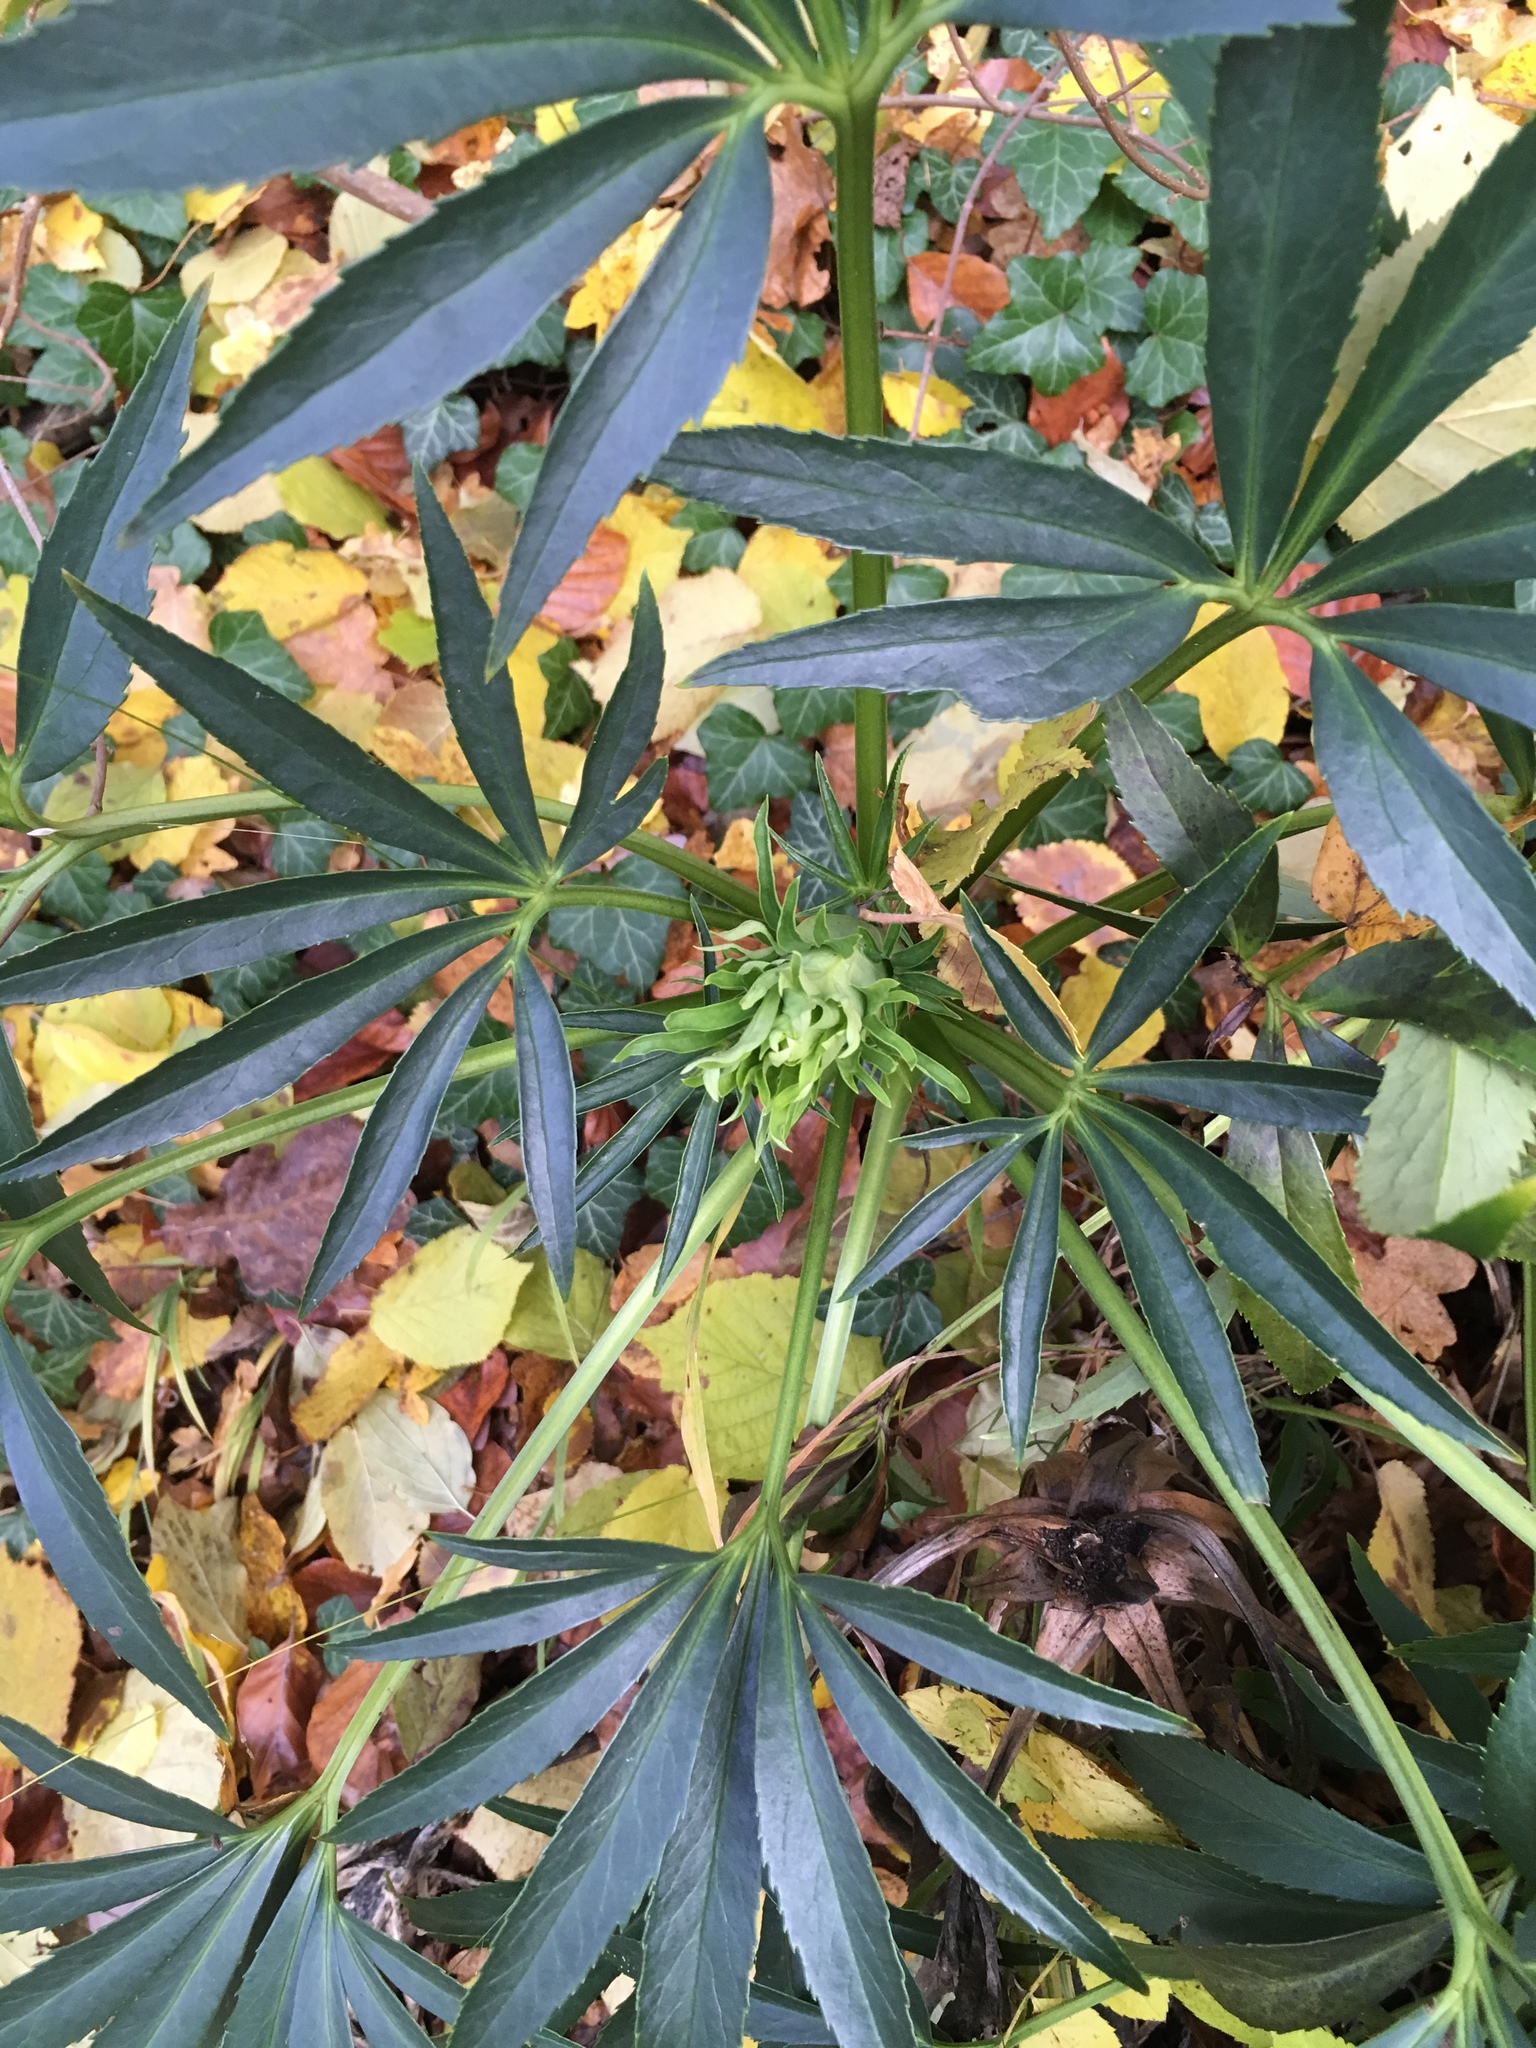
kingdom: Plantae
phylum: Tracheophyta
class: Magnoliopsida
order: Ranunculales
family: Ranunculaceae
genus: Helleborus
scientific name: Helleborus foetidus
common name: Stinking hellebore
